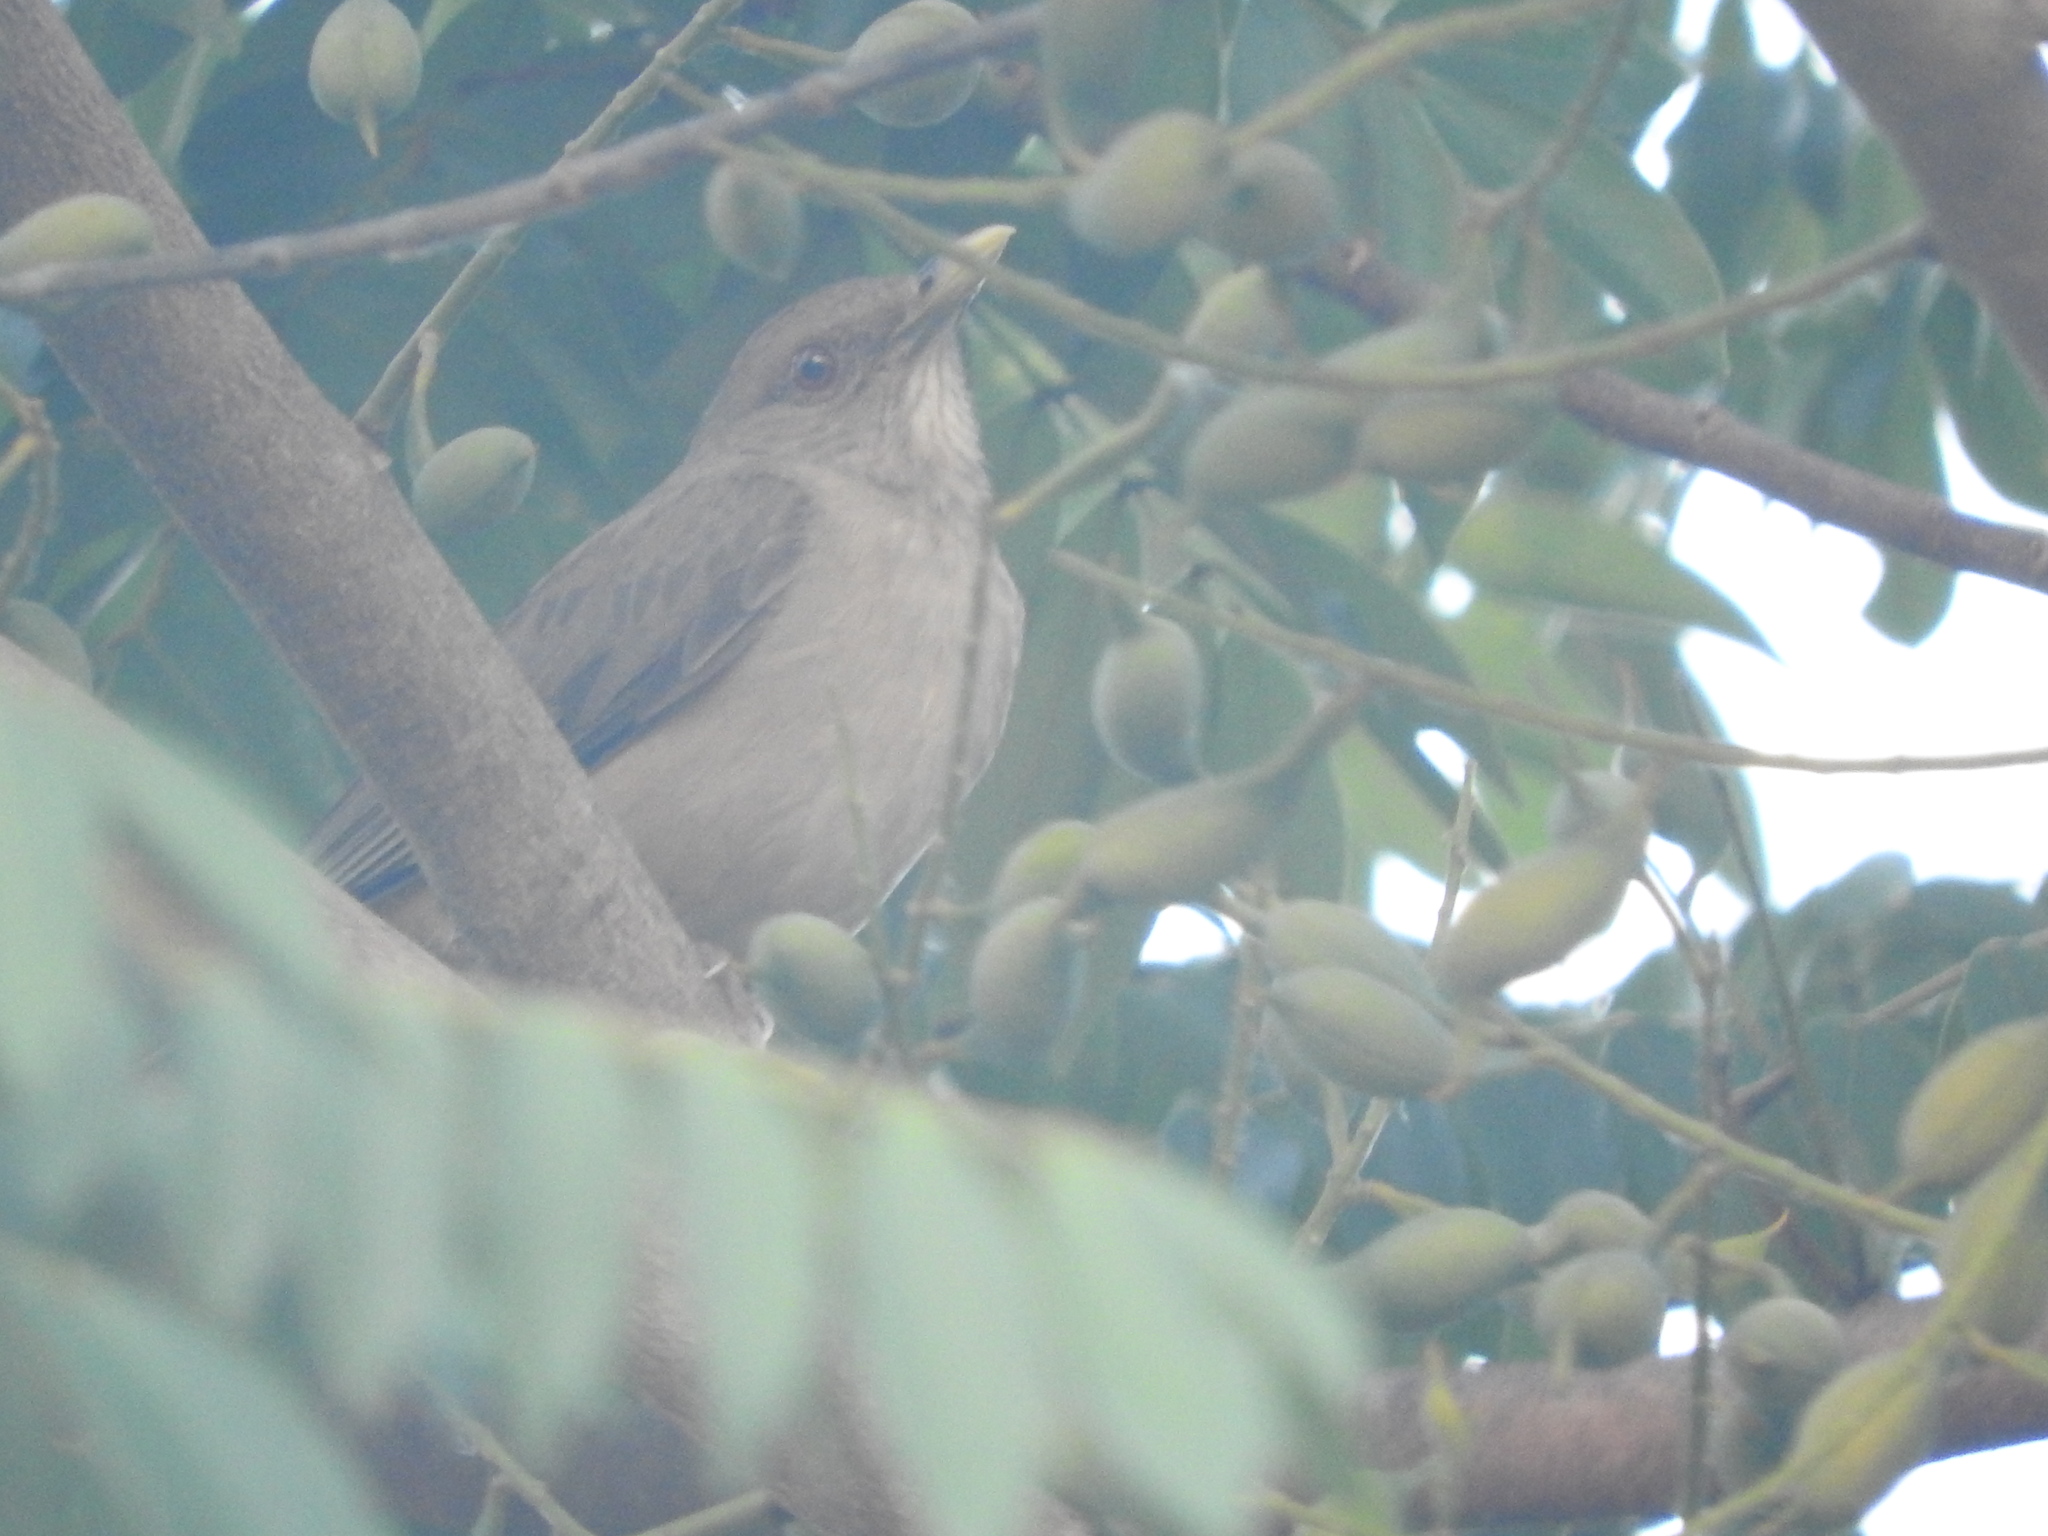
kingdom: Animalia
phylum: Chordata
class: Aves
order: Passeriformes
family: Turdidae
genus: Turdus
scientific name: Turdus grayi
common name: Clay-colored thrush
